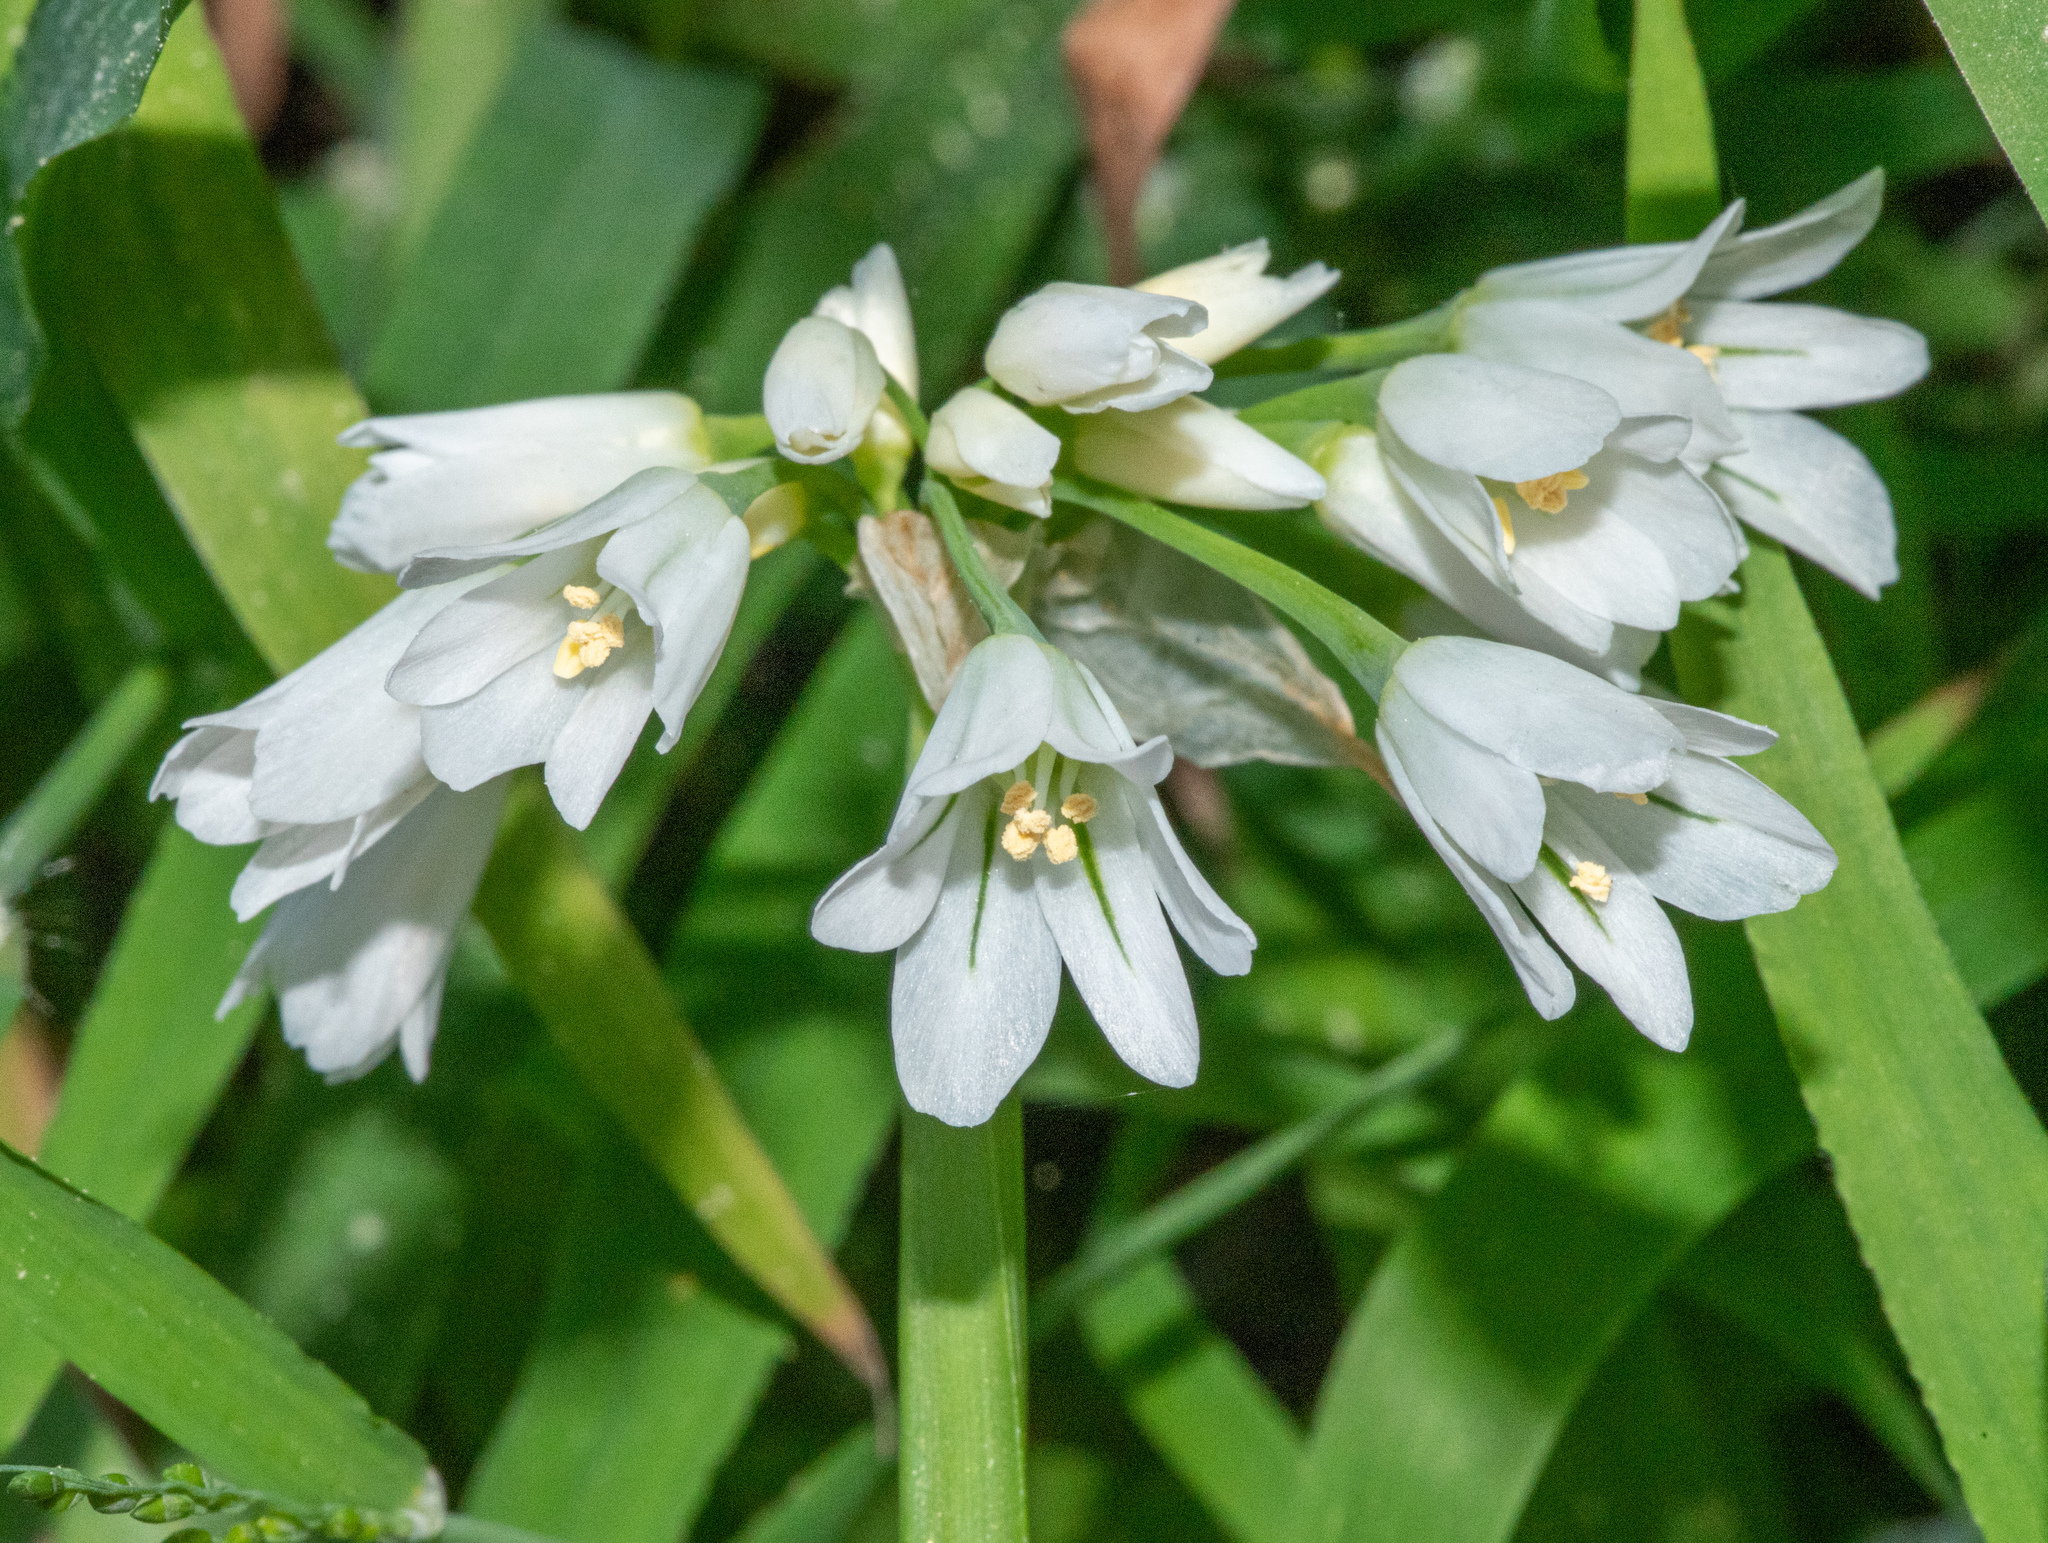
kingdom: Plantae
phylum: Tracheophyta
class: Liliopsida
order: Asparagales
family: Amaryllidaceae
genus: Allium
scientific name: Allium triquetrum
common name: Three-cornered garlic
